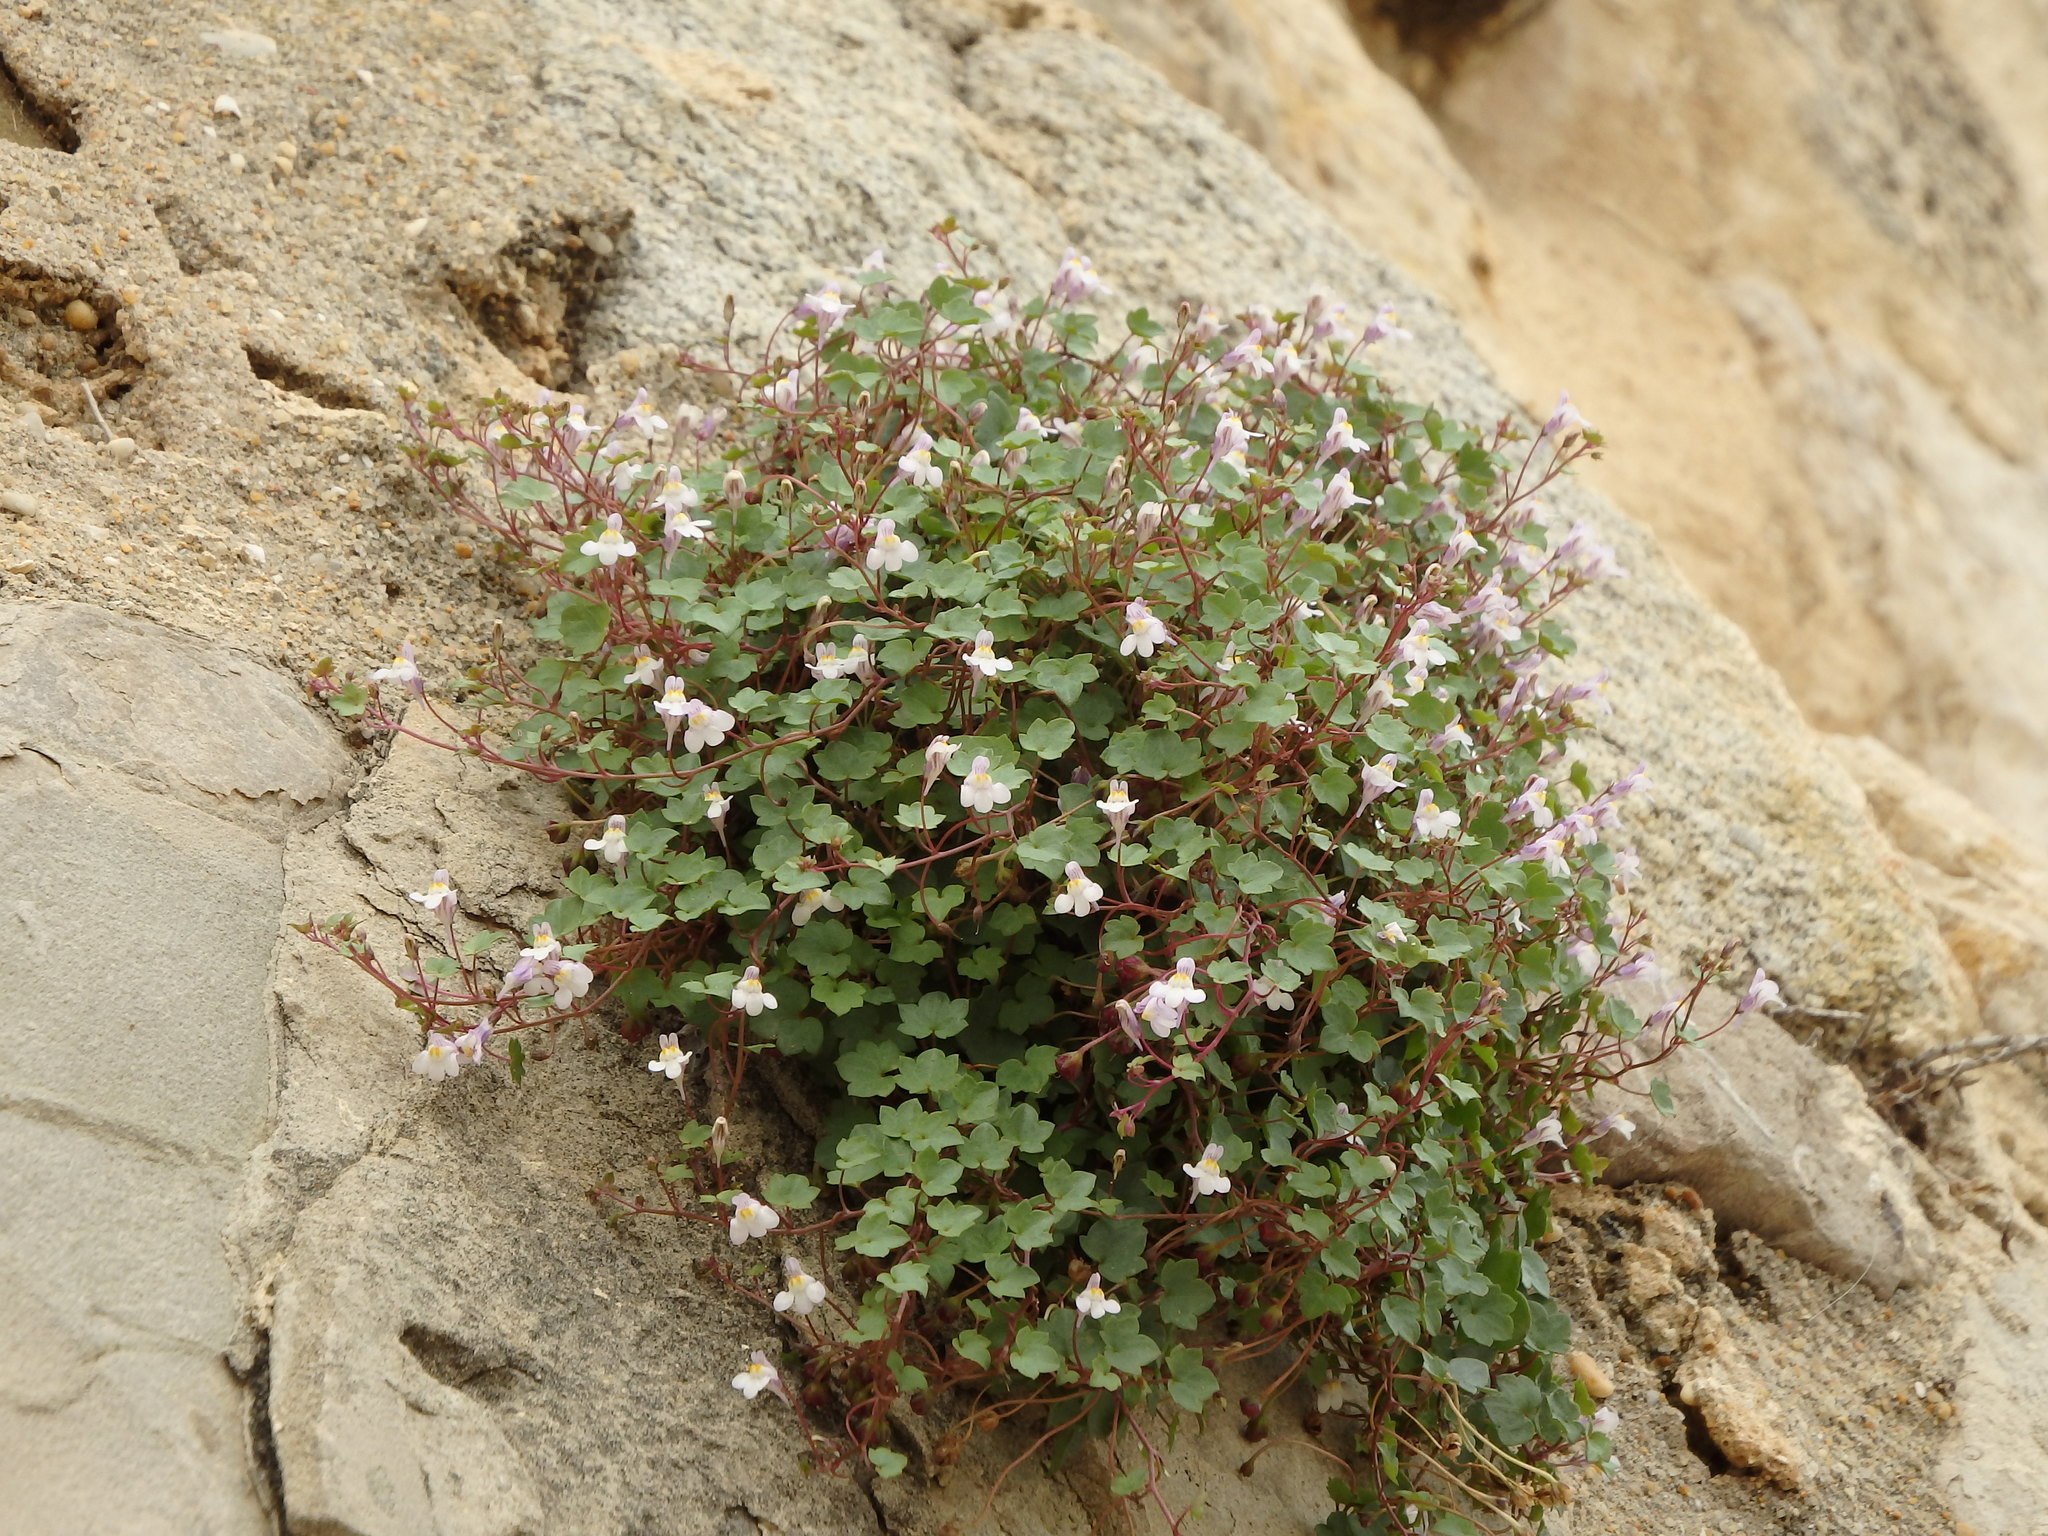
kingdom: Plantae
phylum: Tracheophyta
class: Magnoliopsida
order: Lamiales
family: Plantaginaceae
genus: Cymbalaria
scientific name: Cymbalaria muralis
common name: Ivy-leaved toadflax
